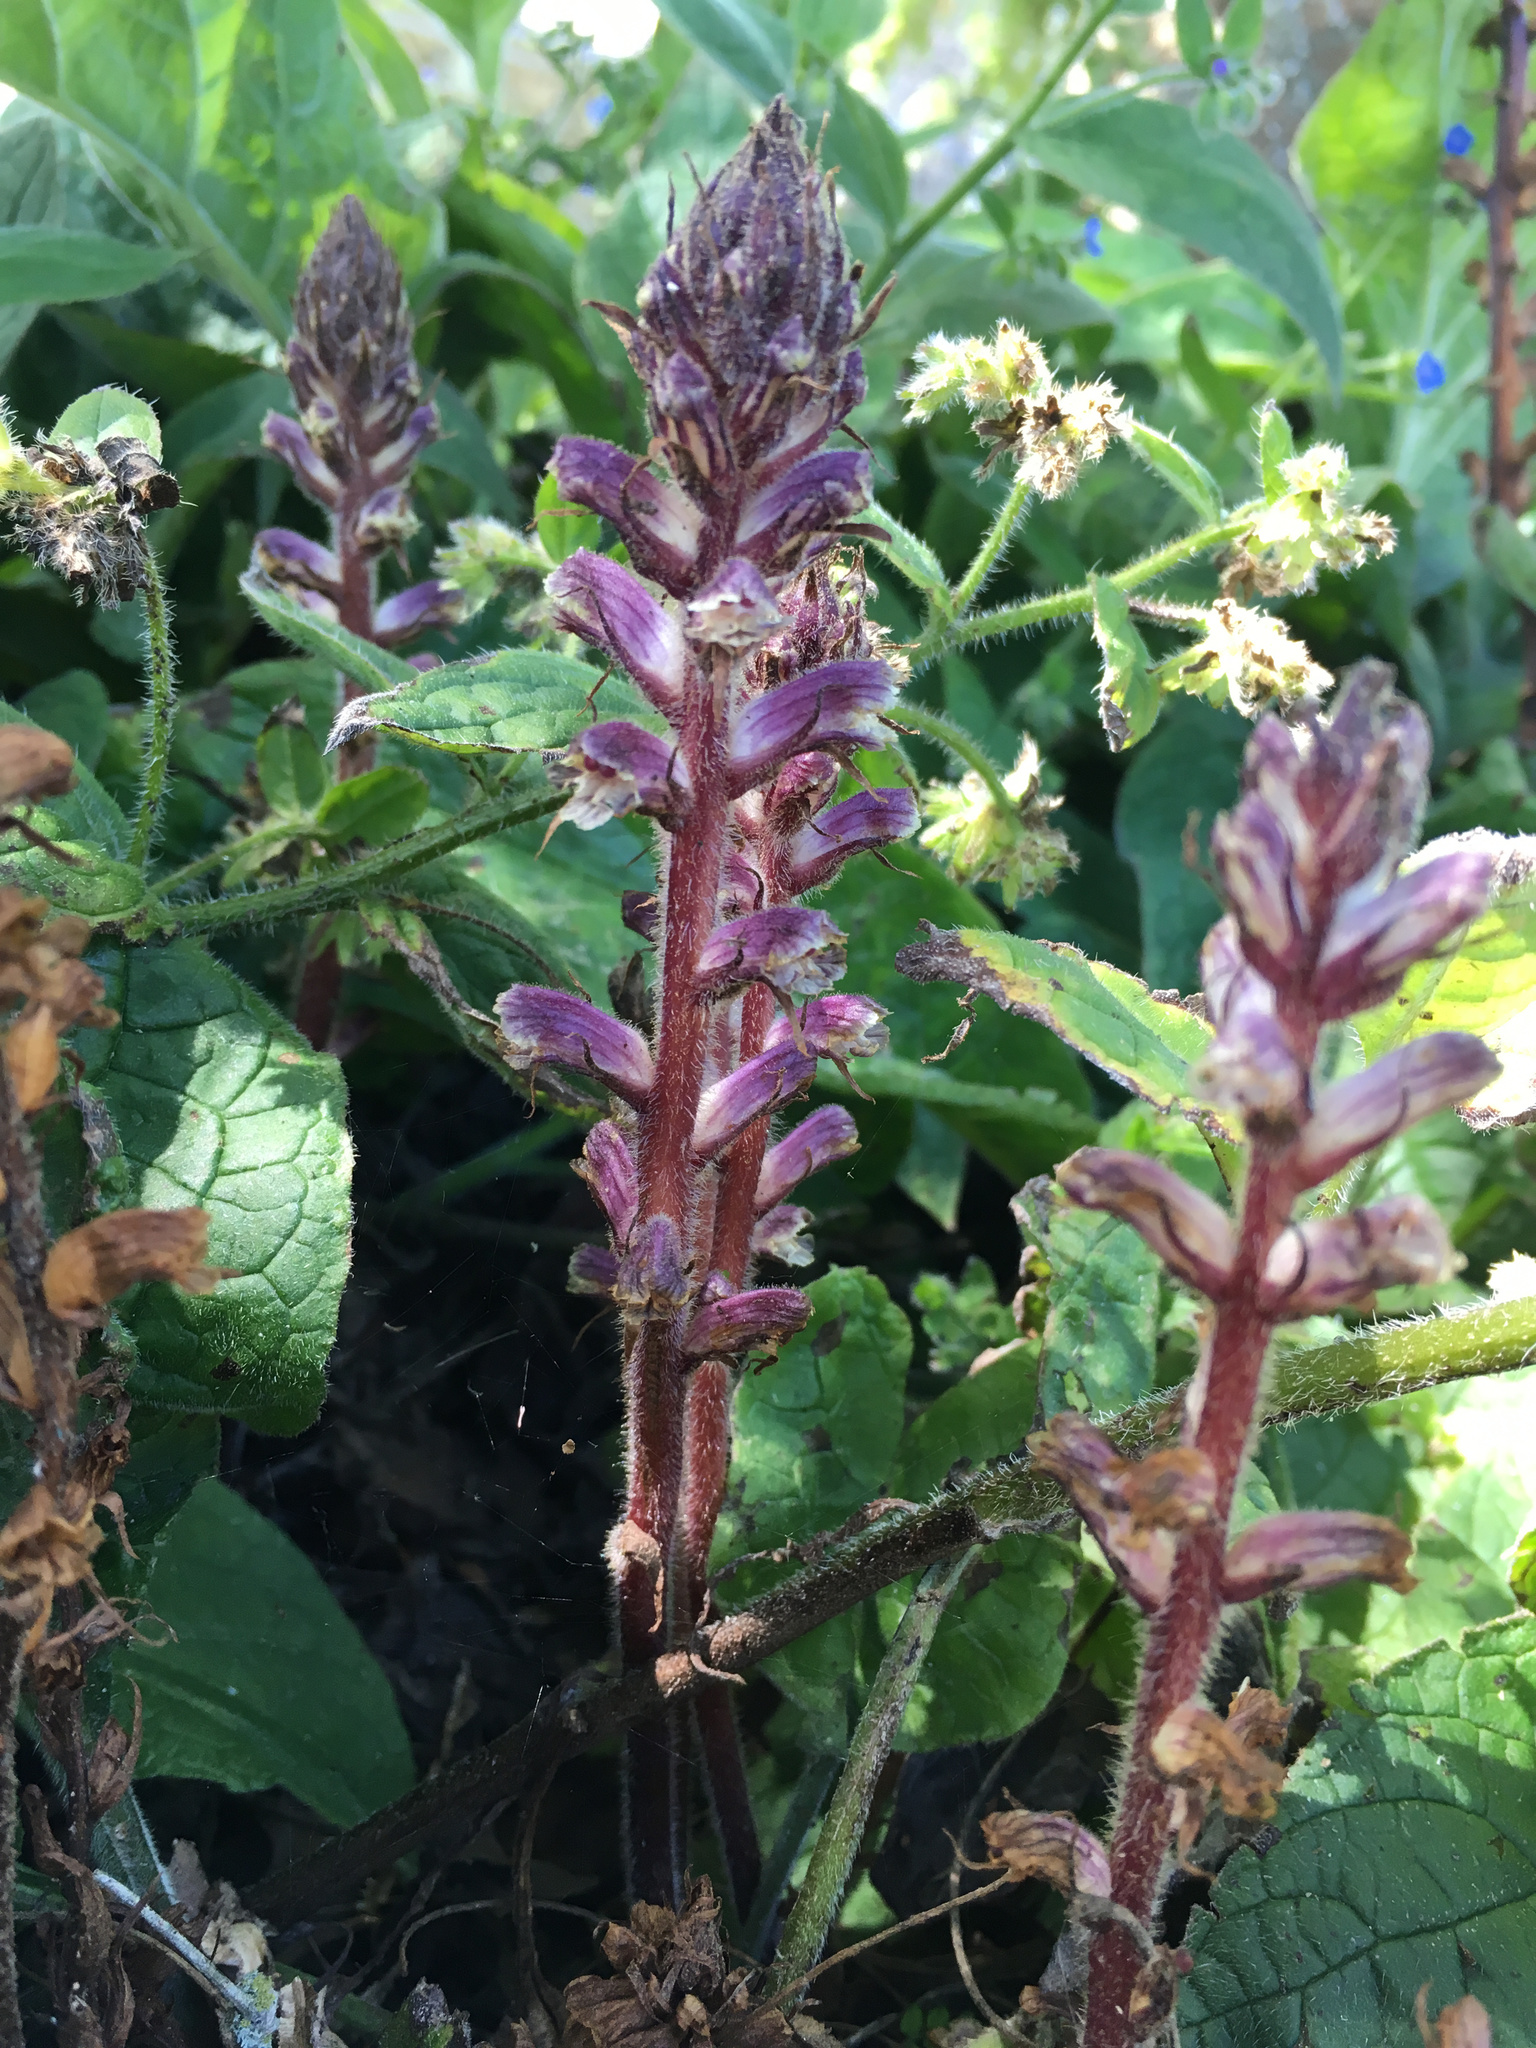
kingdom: Plantae
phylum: Tracheophyta
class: Magnoliopsida
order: Lamiales
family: Orobanchaceae
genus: Orobanche
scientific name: Orobanche minor
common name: Common broomrape
